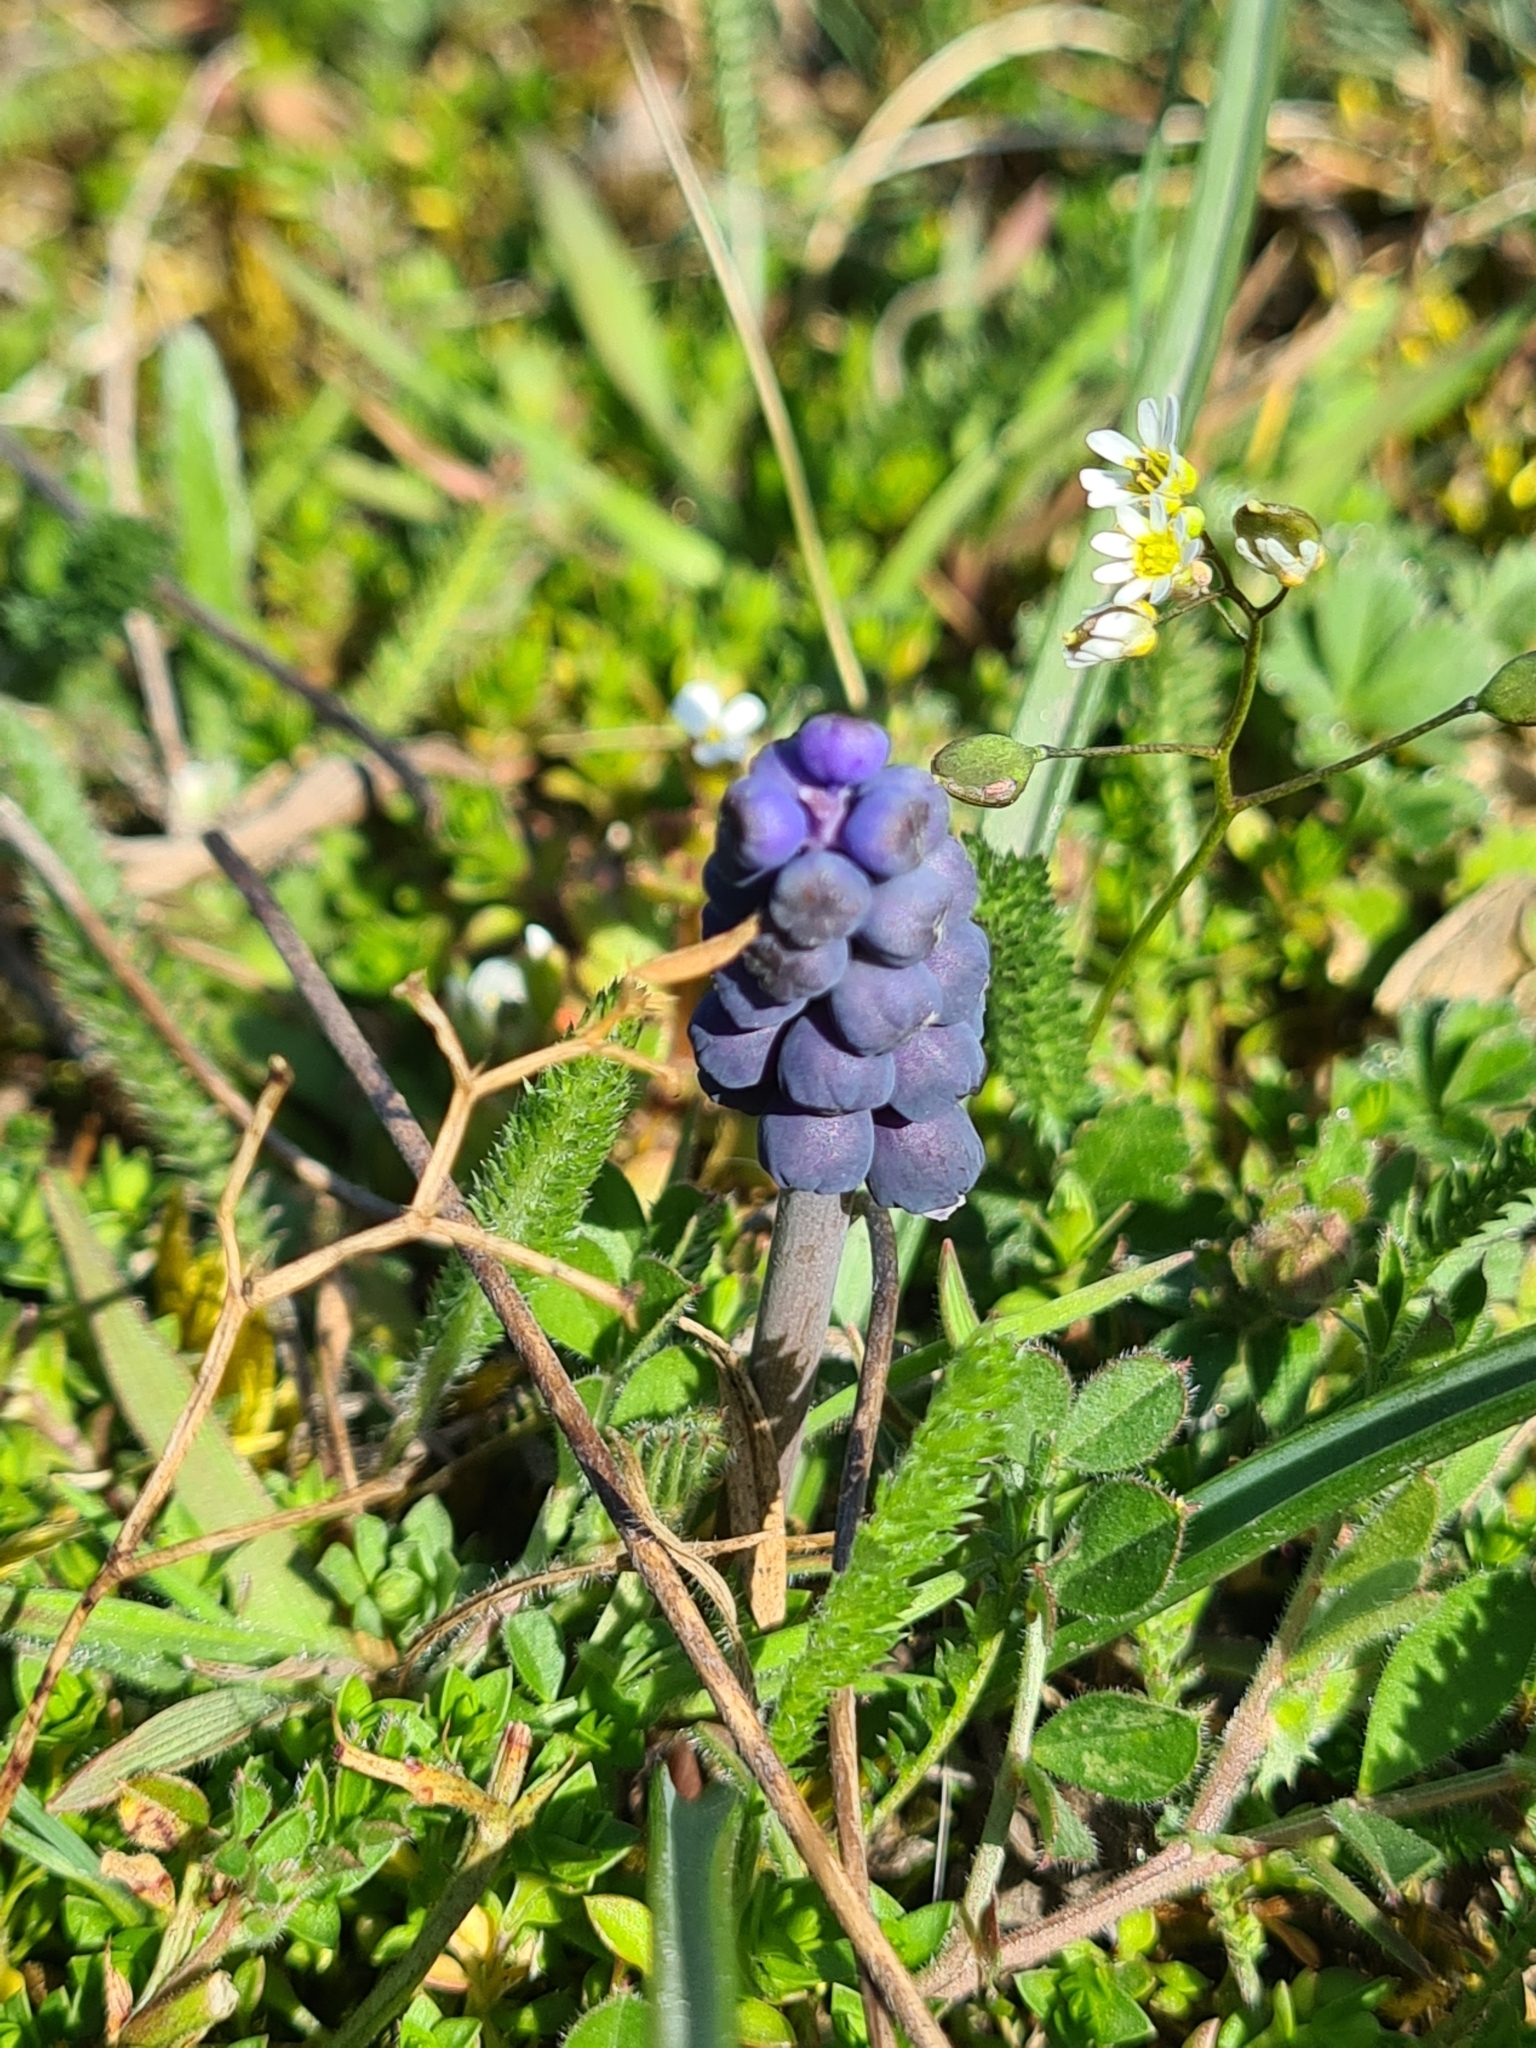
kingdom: Plantae
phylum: Tracheophyta
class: Liliopsida
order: Asparagales
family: Asparagaceae
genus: Muscari
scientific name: Muscari neglectum
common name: Grape-hyacinth
